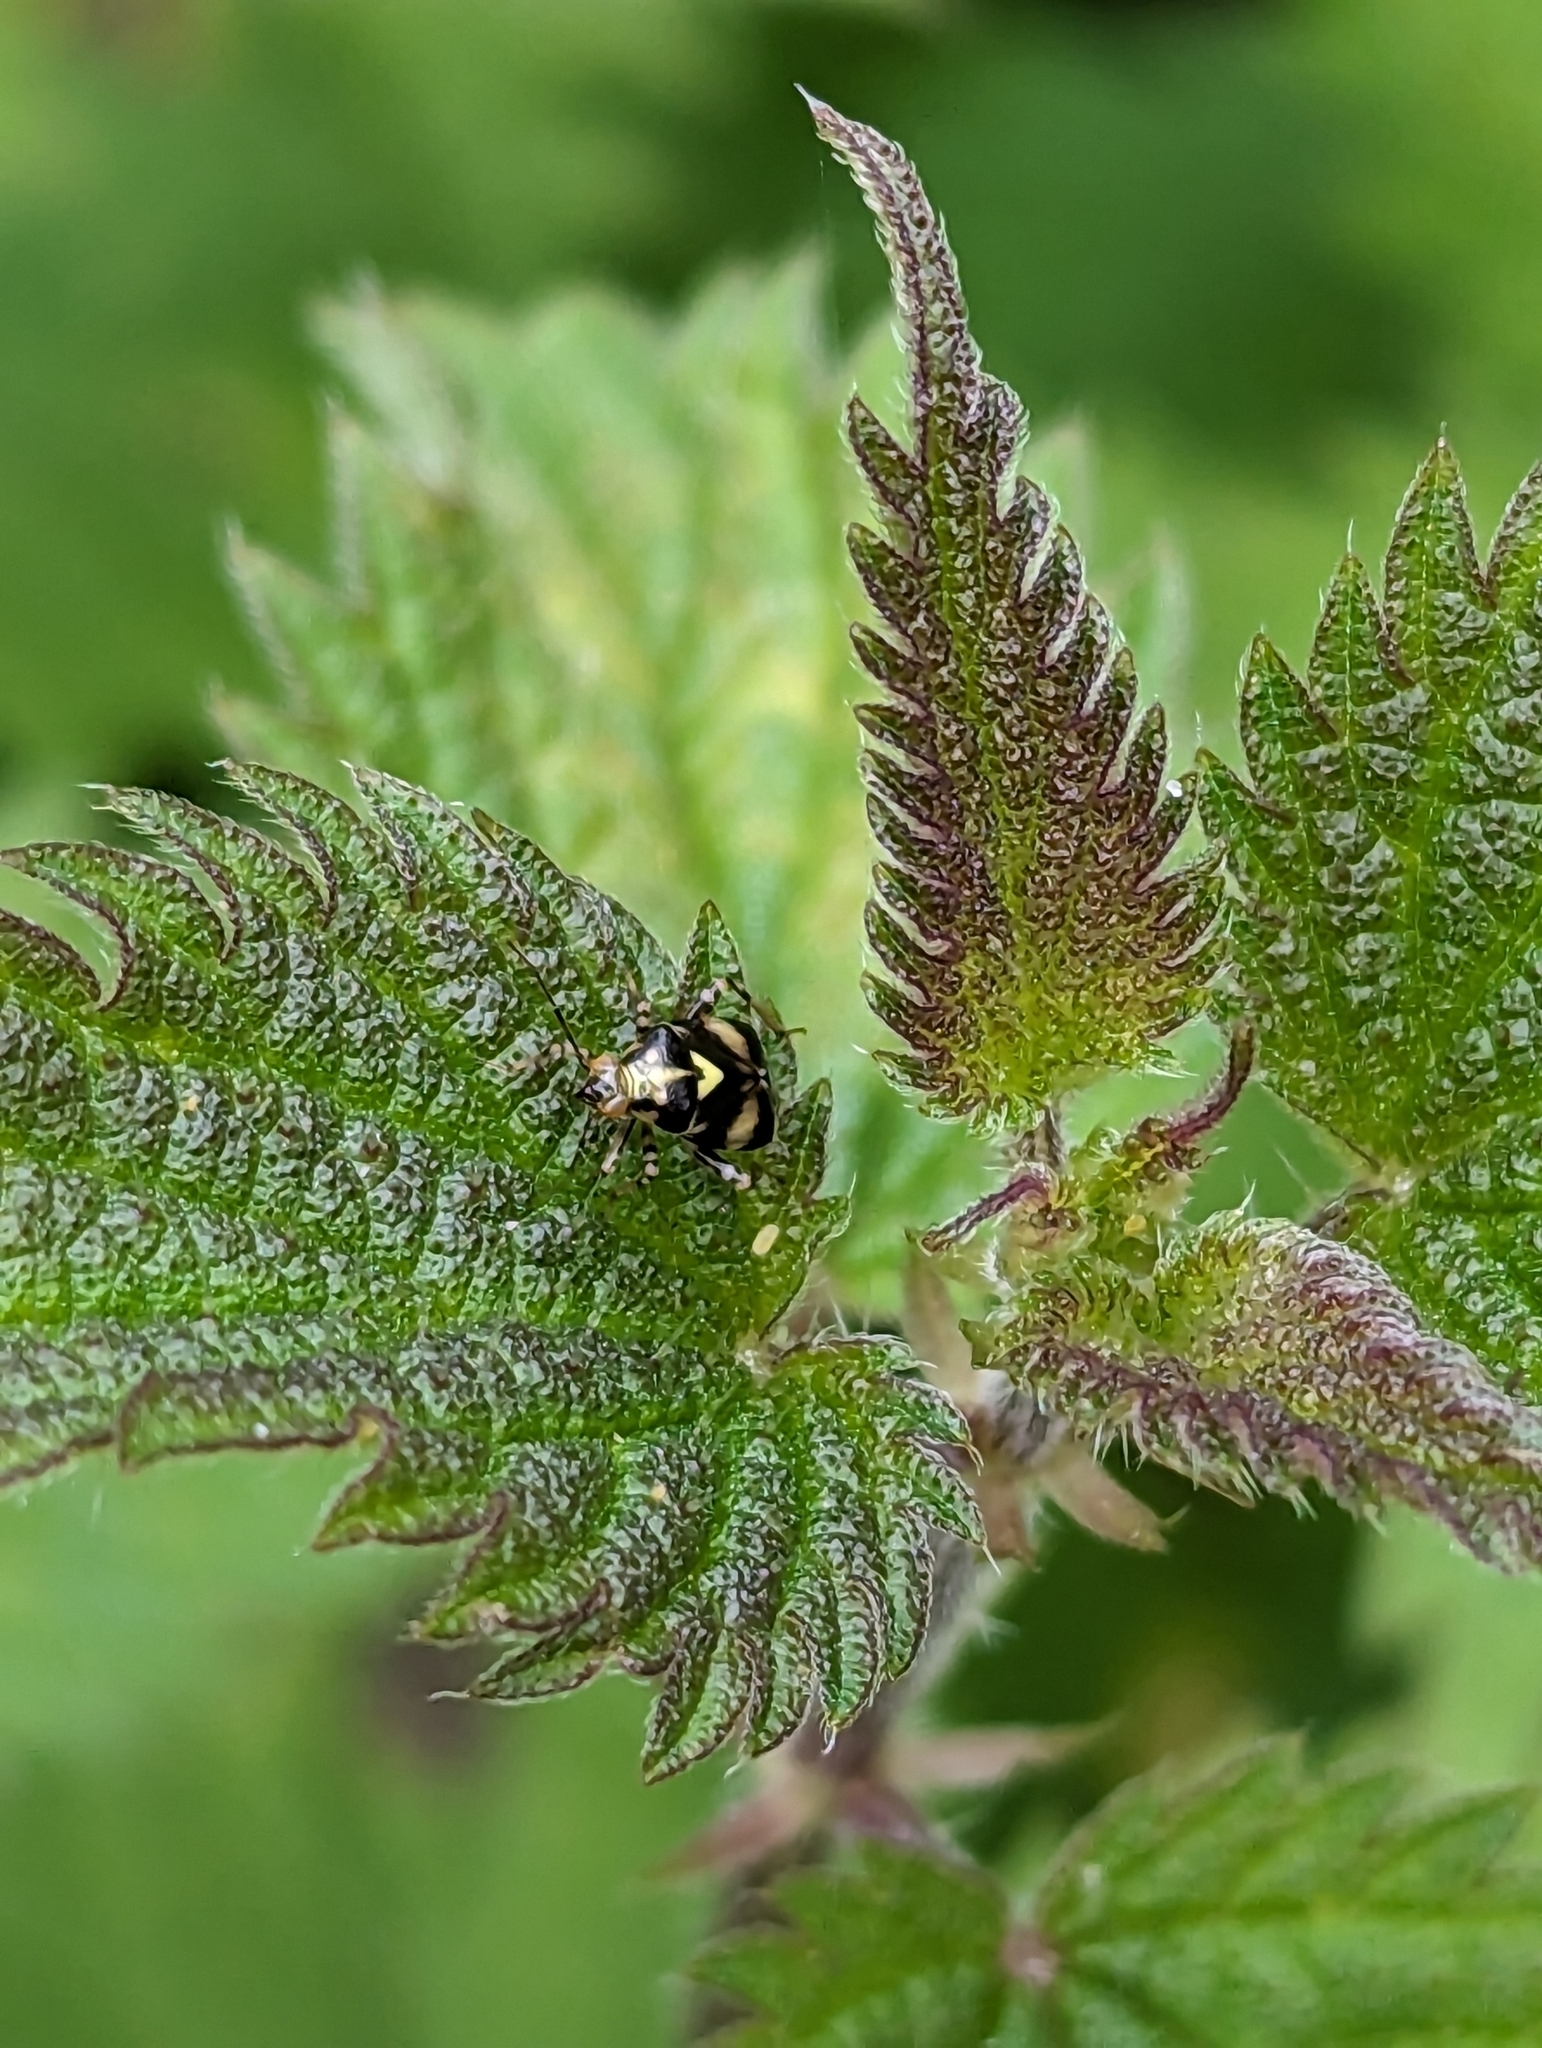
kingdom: Animalia
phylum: Arthropoda
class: Insecta
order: Hemiptera
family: Miridae
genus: Liocoris
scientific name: Liocoris tripustulatus
